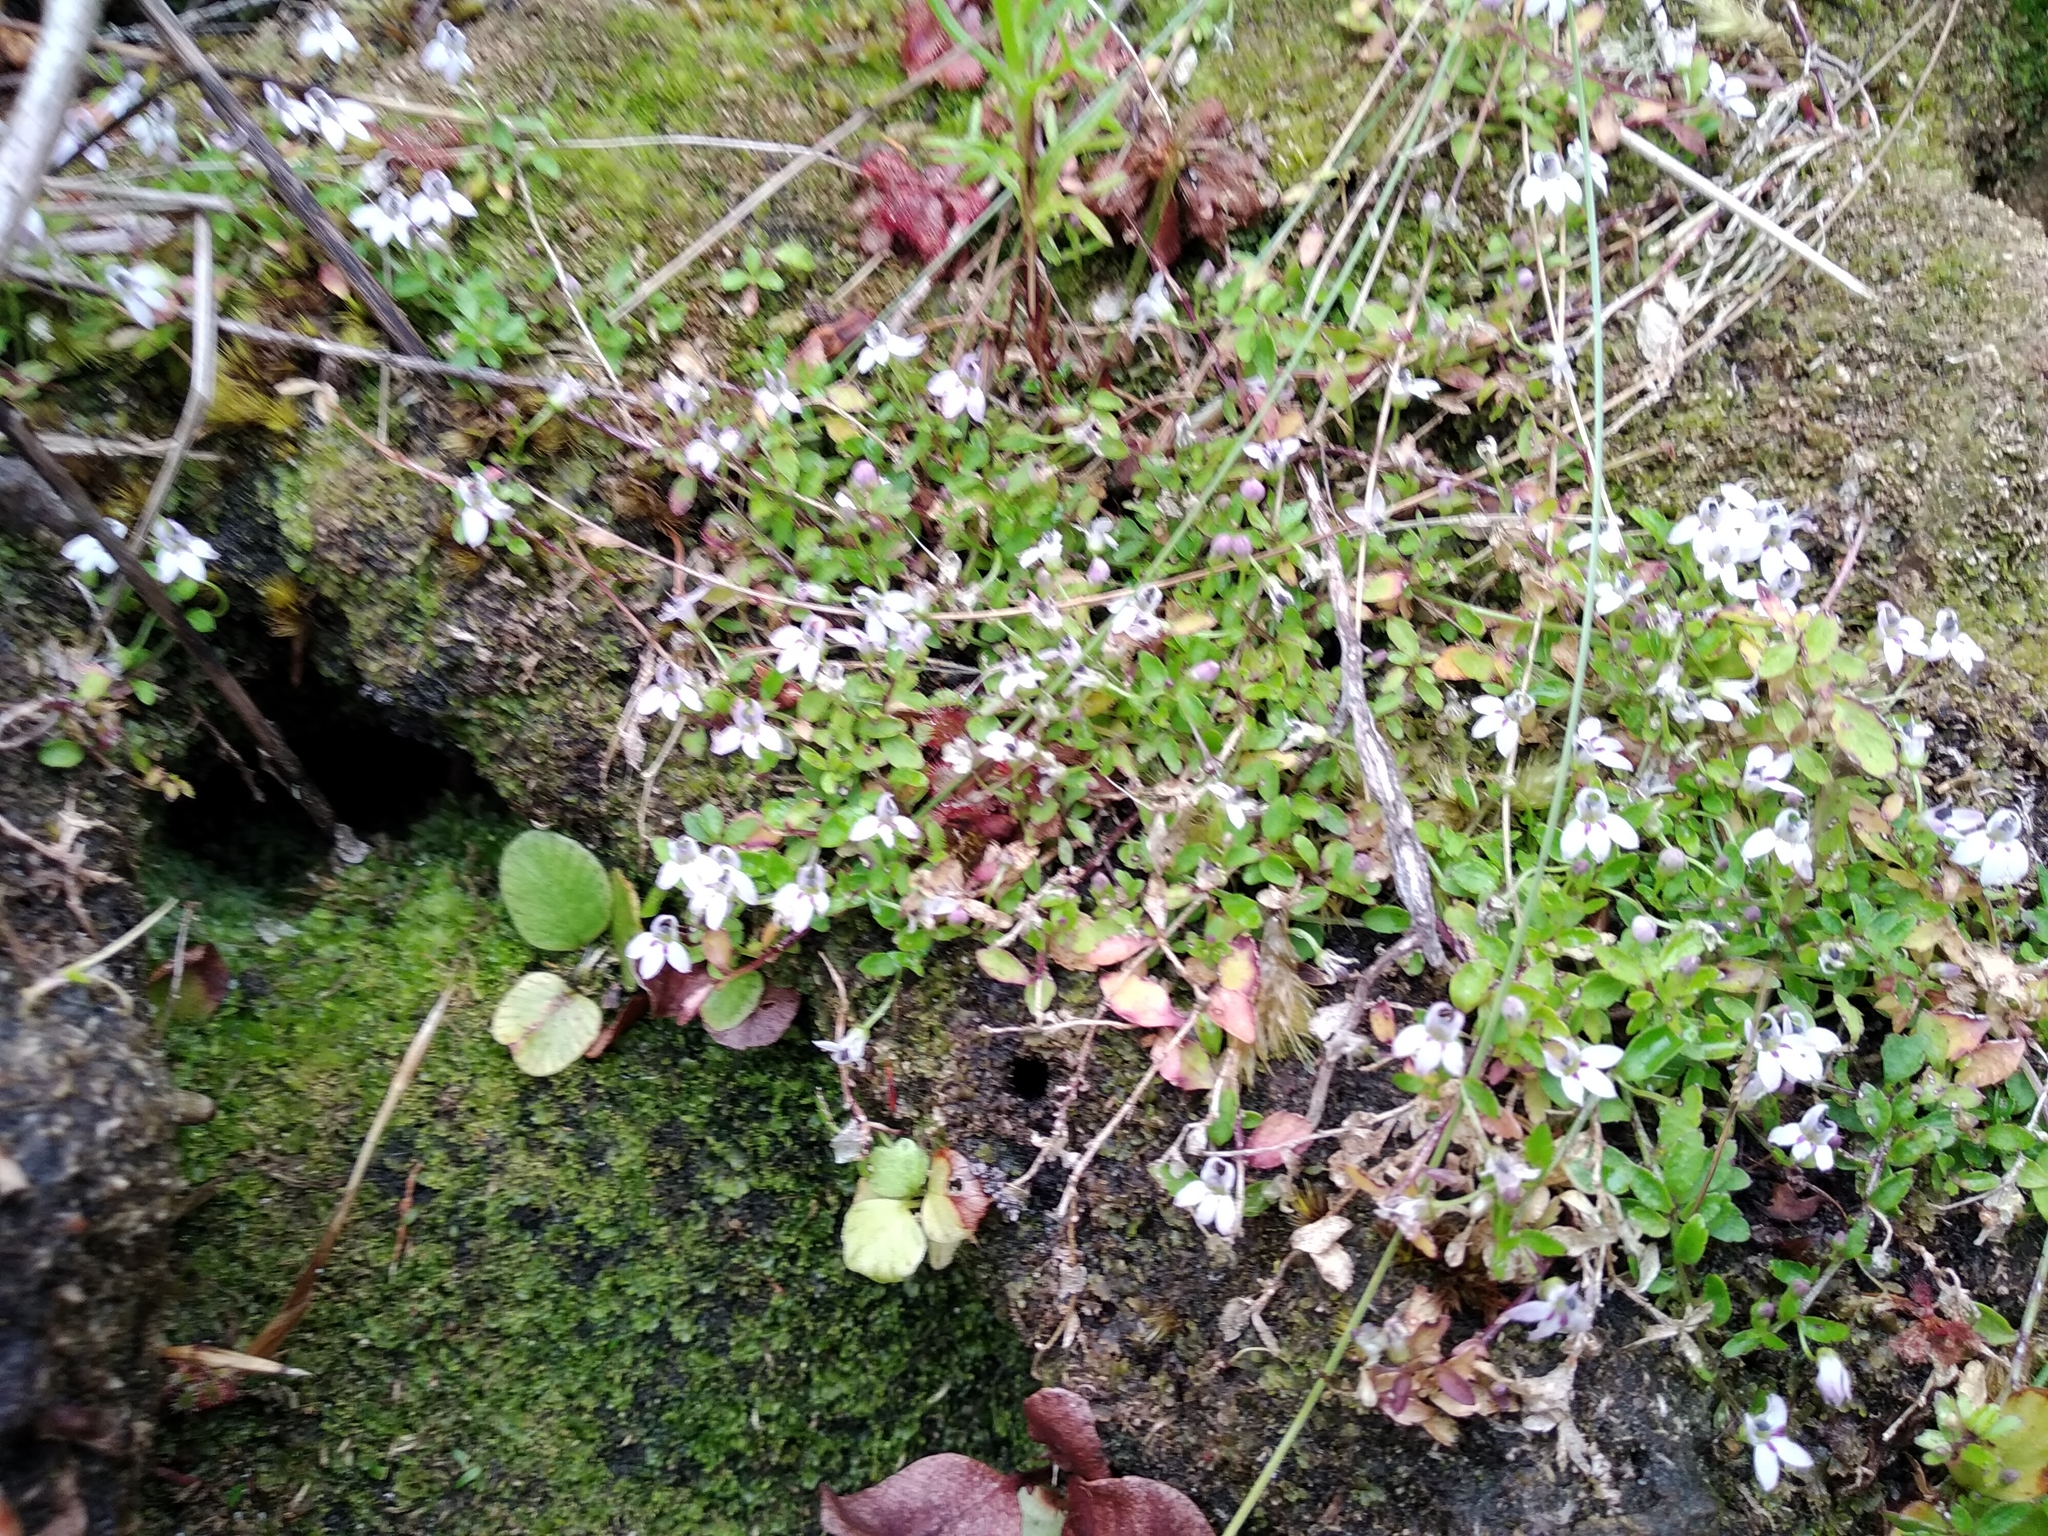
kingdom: Plantae
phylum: Tracheophyta
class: Magnoliopsida
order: Asterales
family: Campanulaceae
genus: Unigenes
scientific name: Unigenes humifusa
